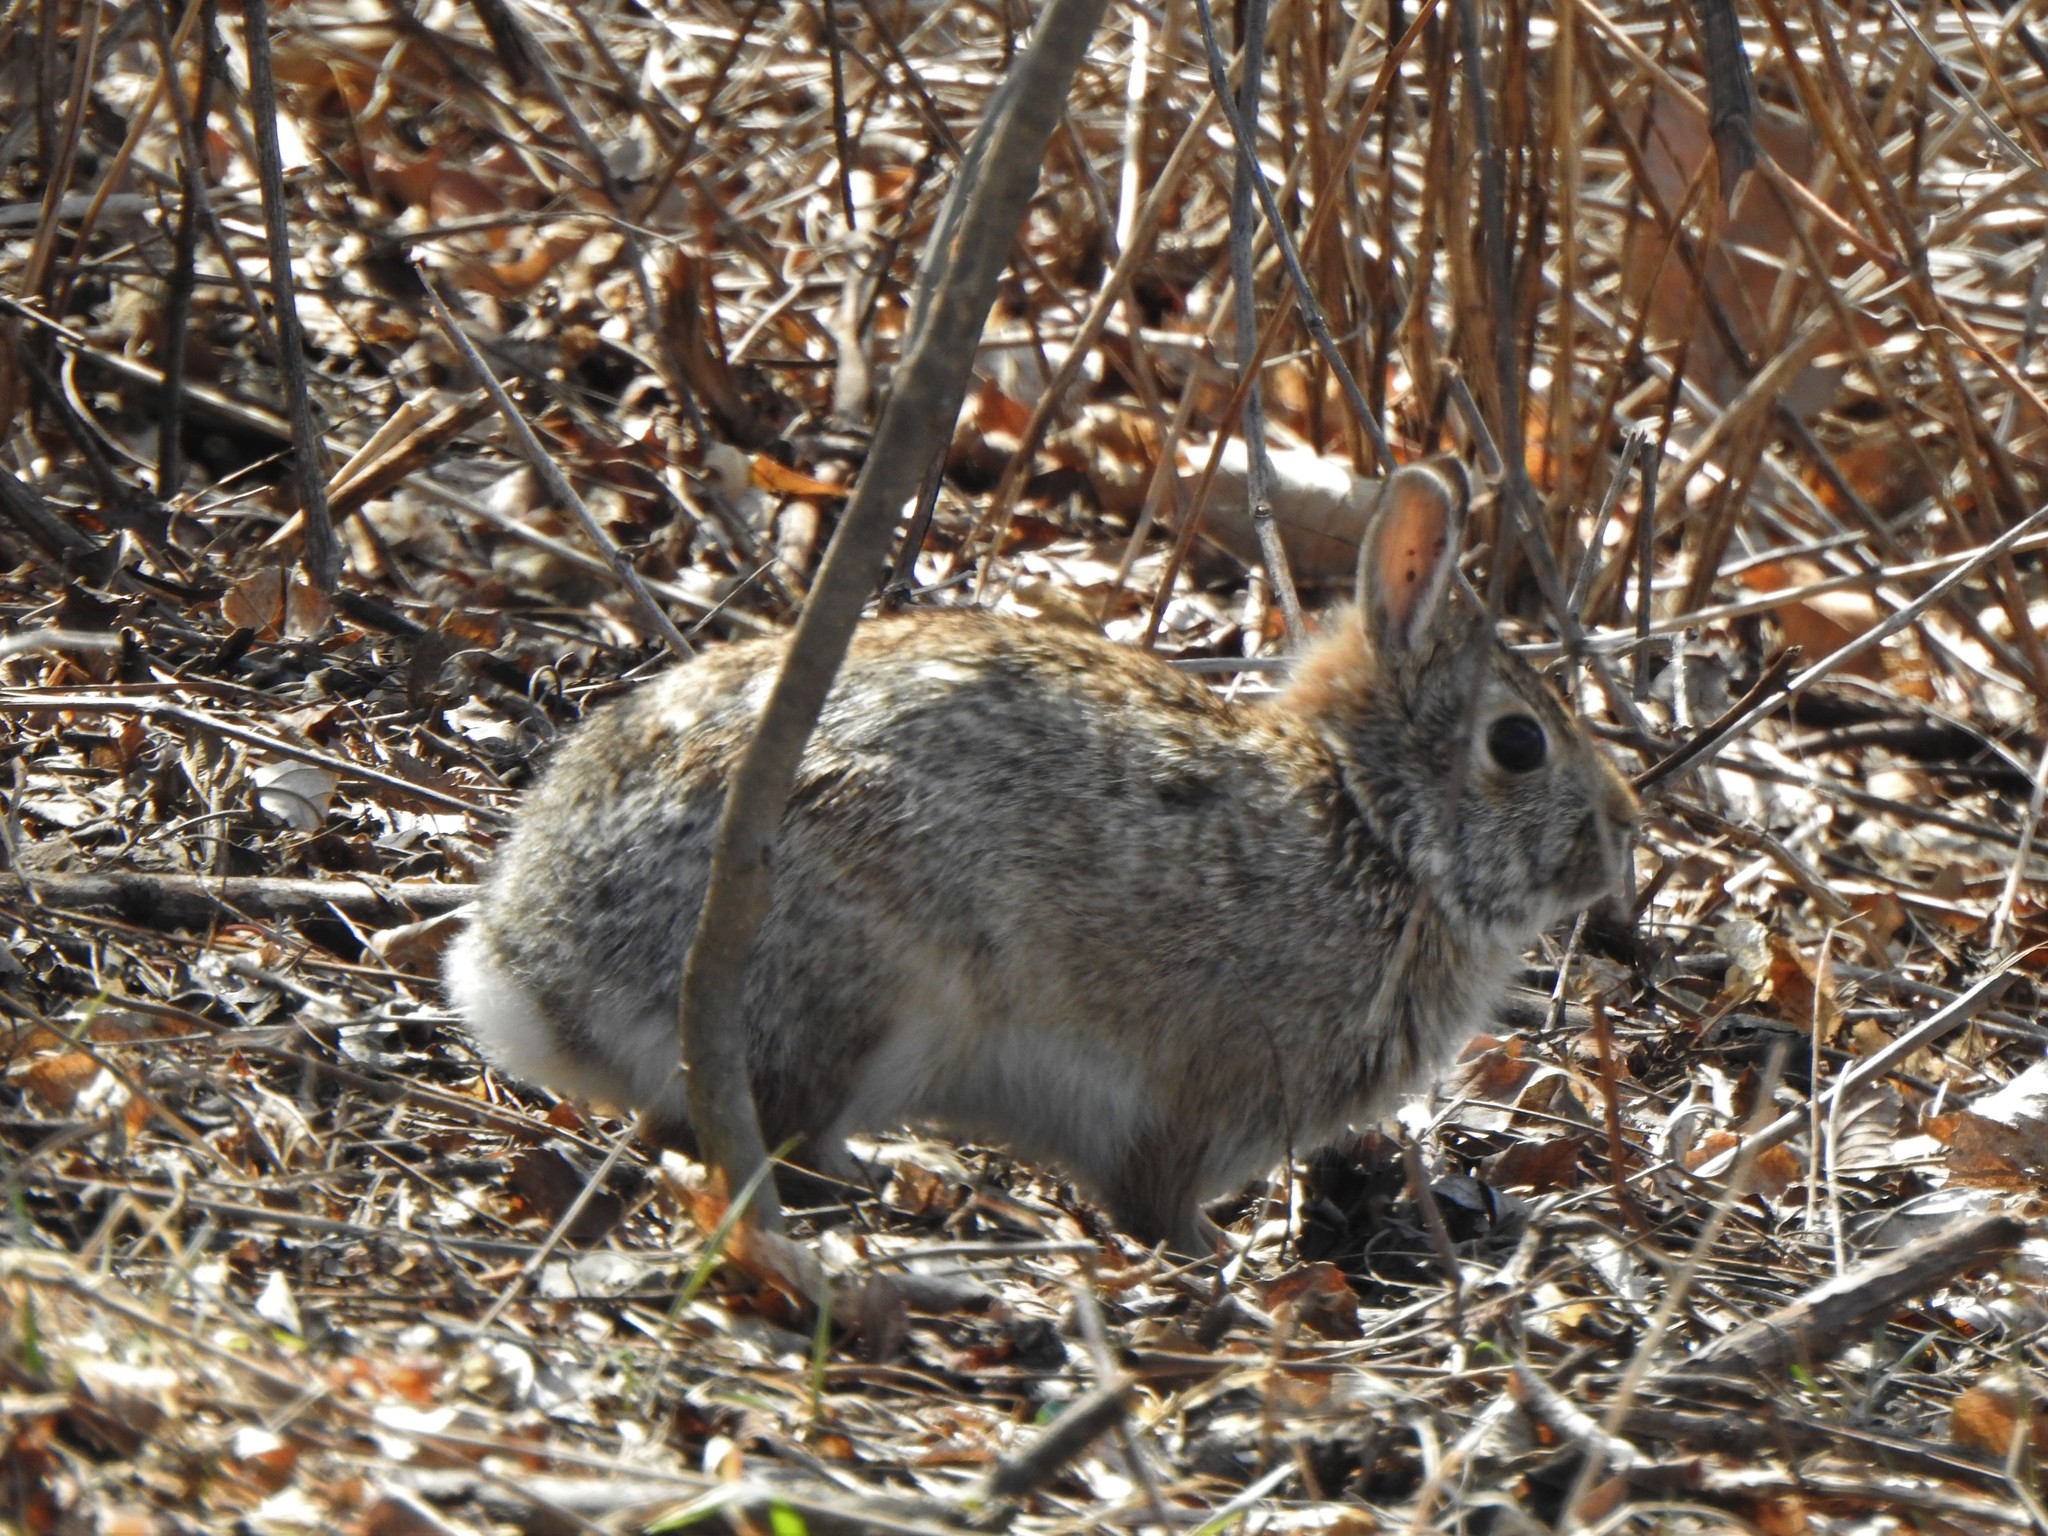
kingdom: Animalia
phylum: Chordata
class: Mammalia
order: Lagomorpha
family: Leporidae
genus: Sylvilagus
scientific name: Sylvilagus floridanus
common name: Eastern cottontail
